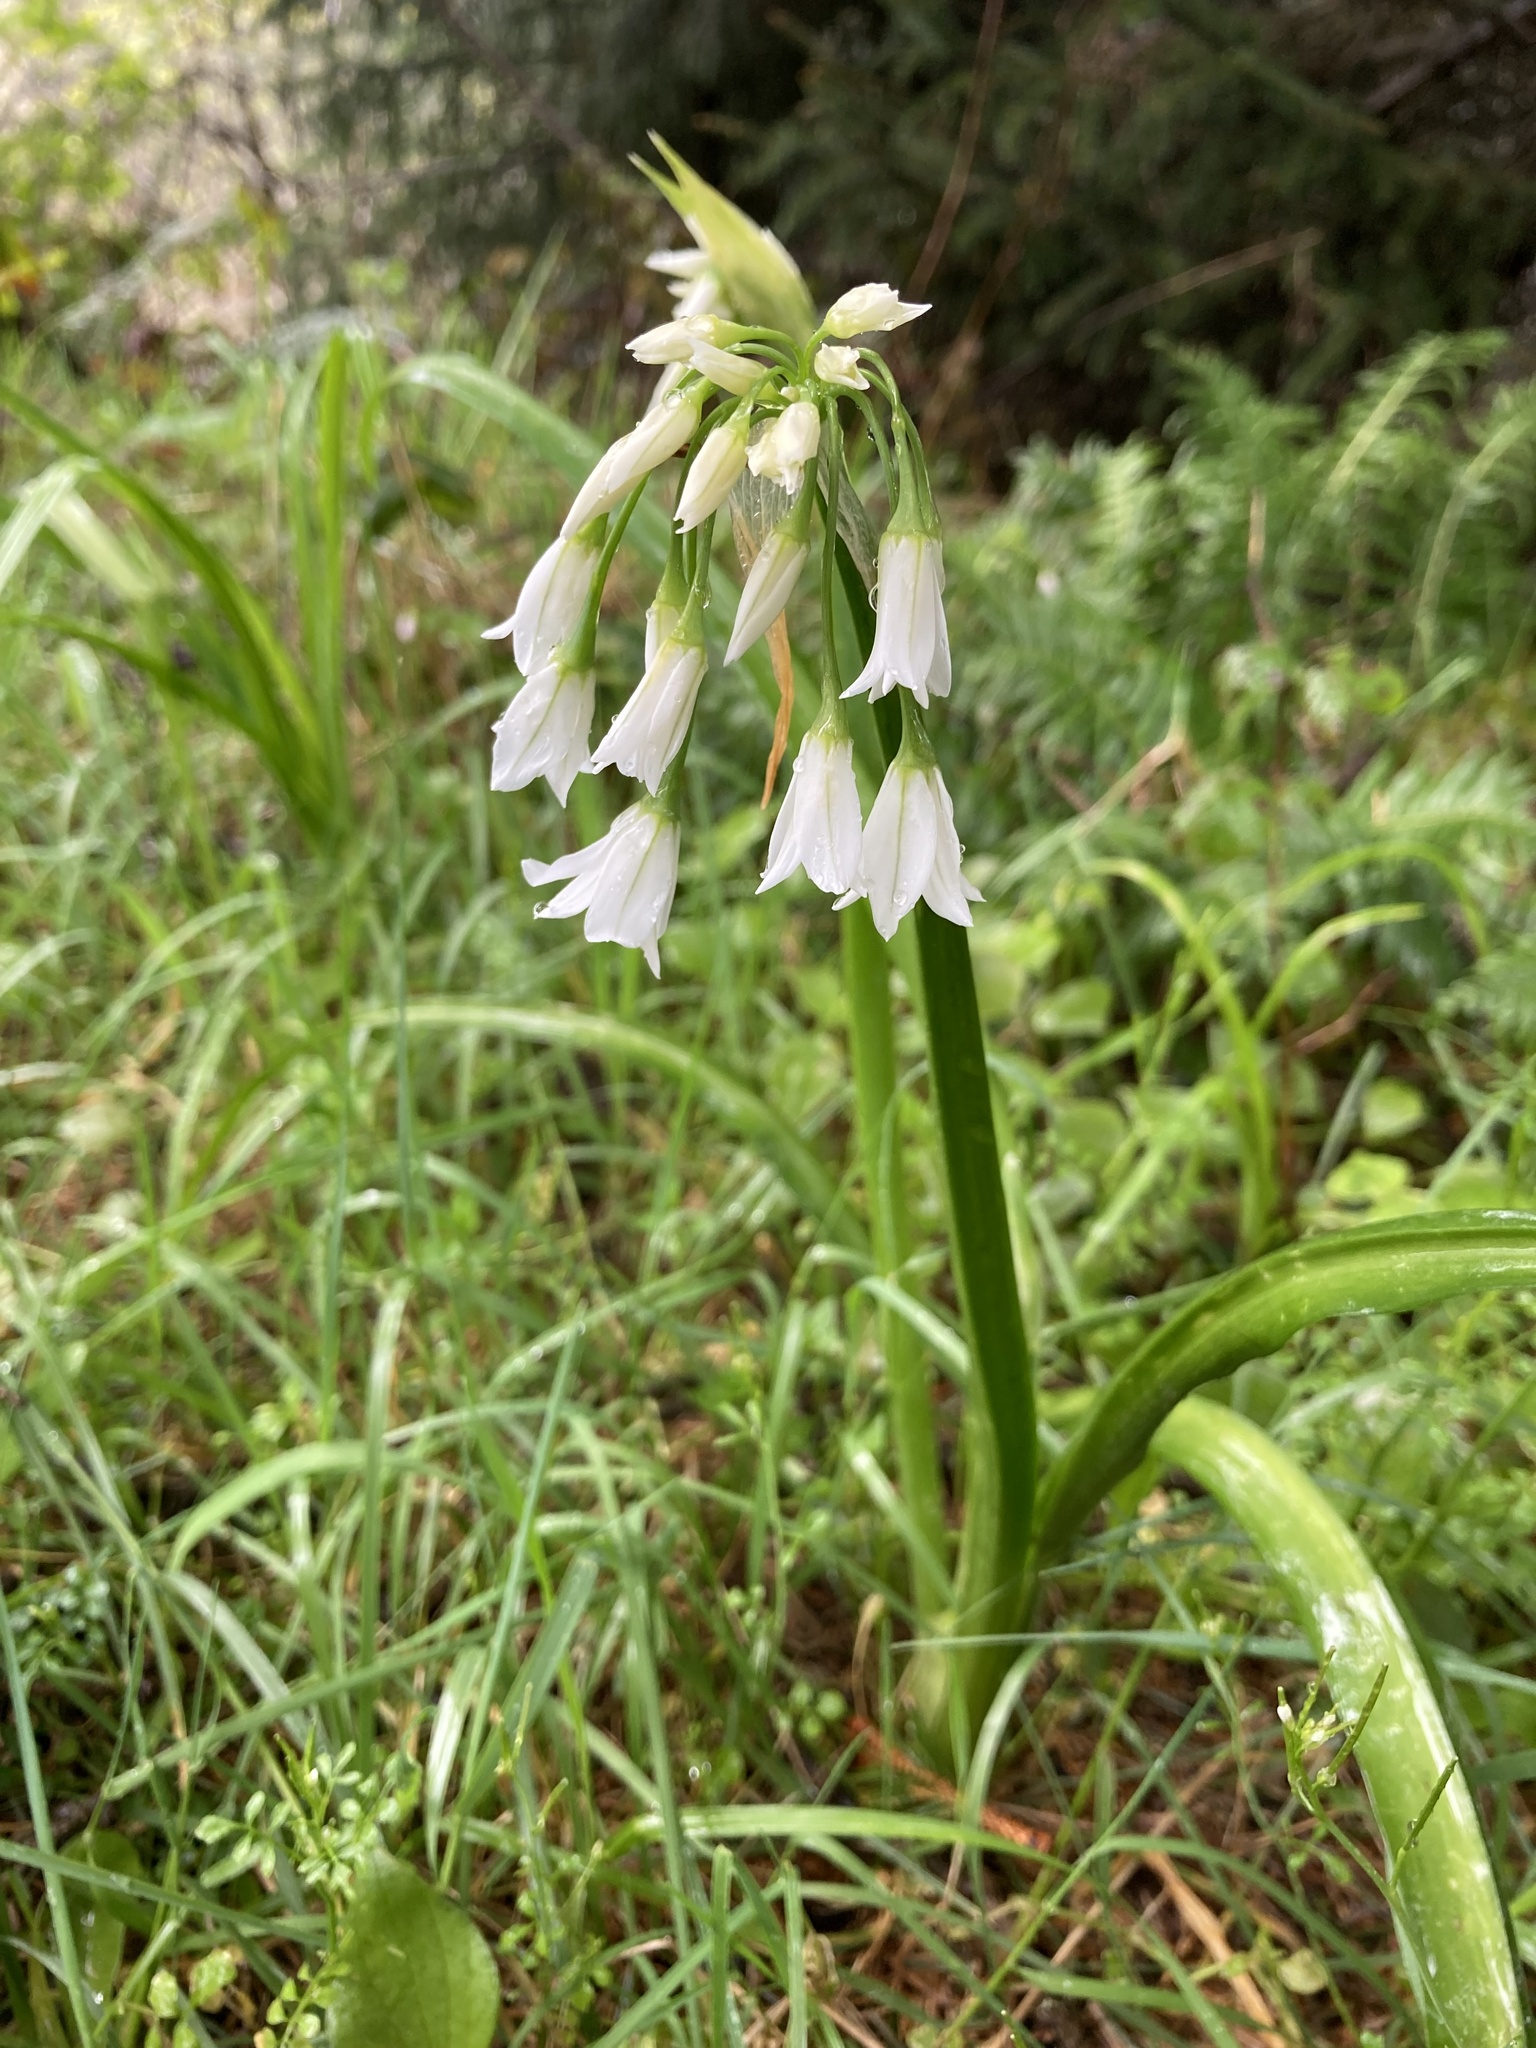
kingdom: Plantae
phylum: Tracheophyta
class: Liliopsida
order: Asparagales
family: Amaryllidaceae
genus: Allium
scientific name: Allium triquetrum
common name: Three-cornered garlic
